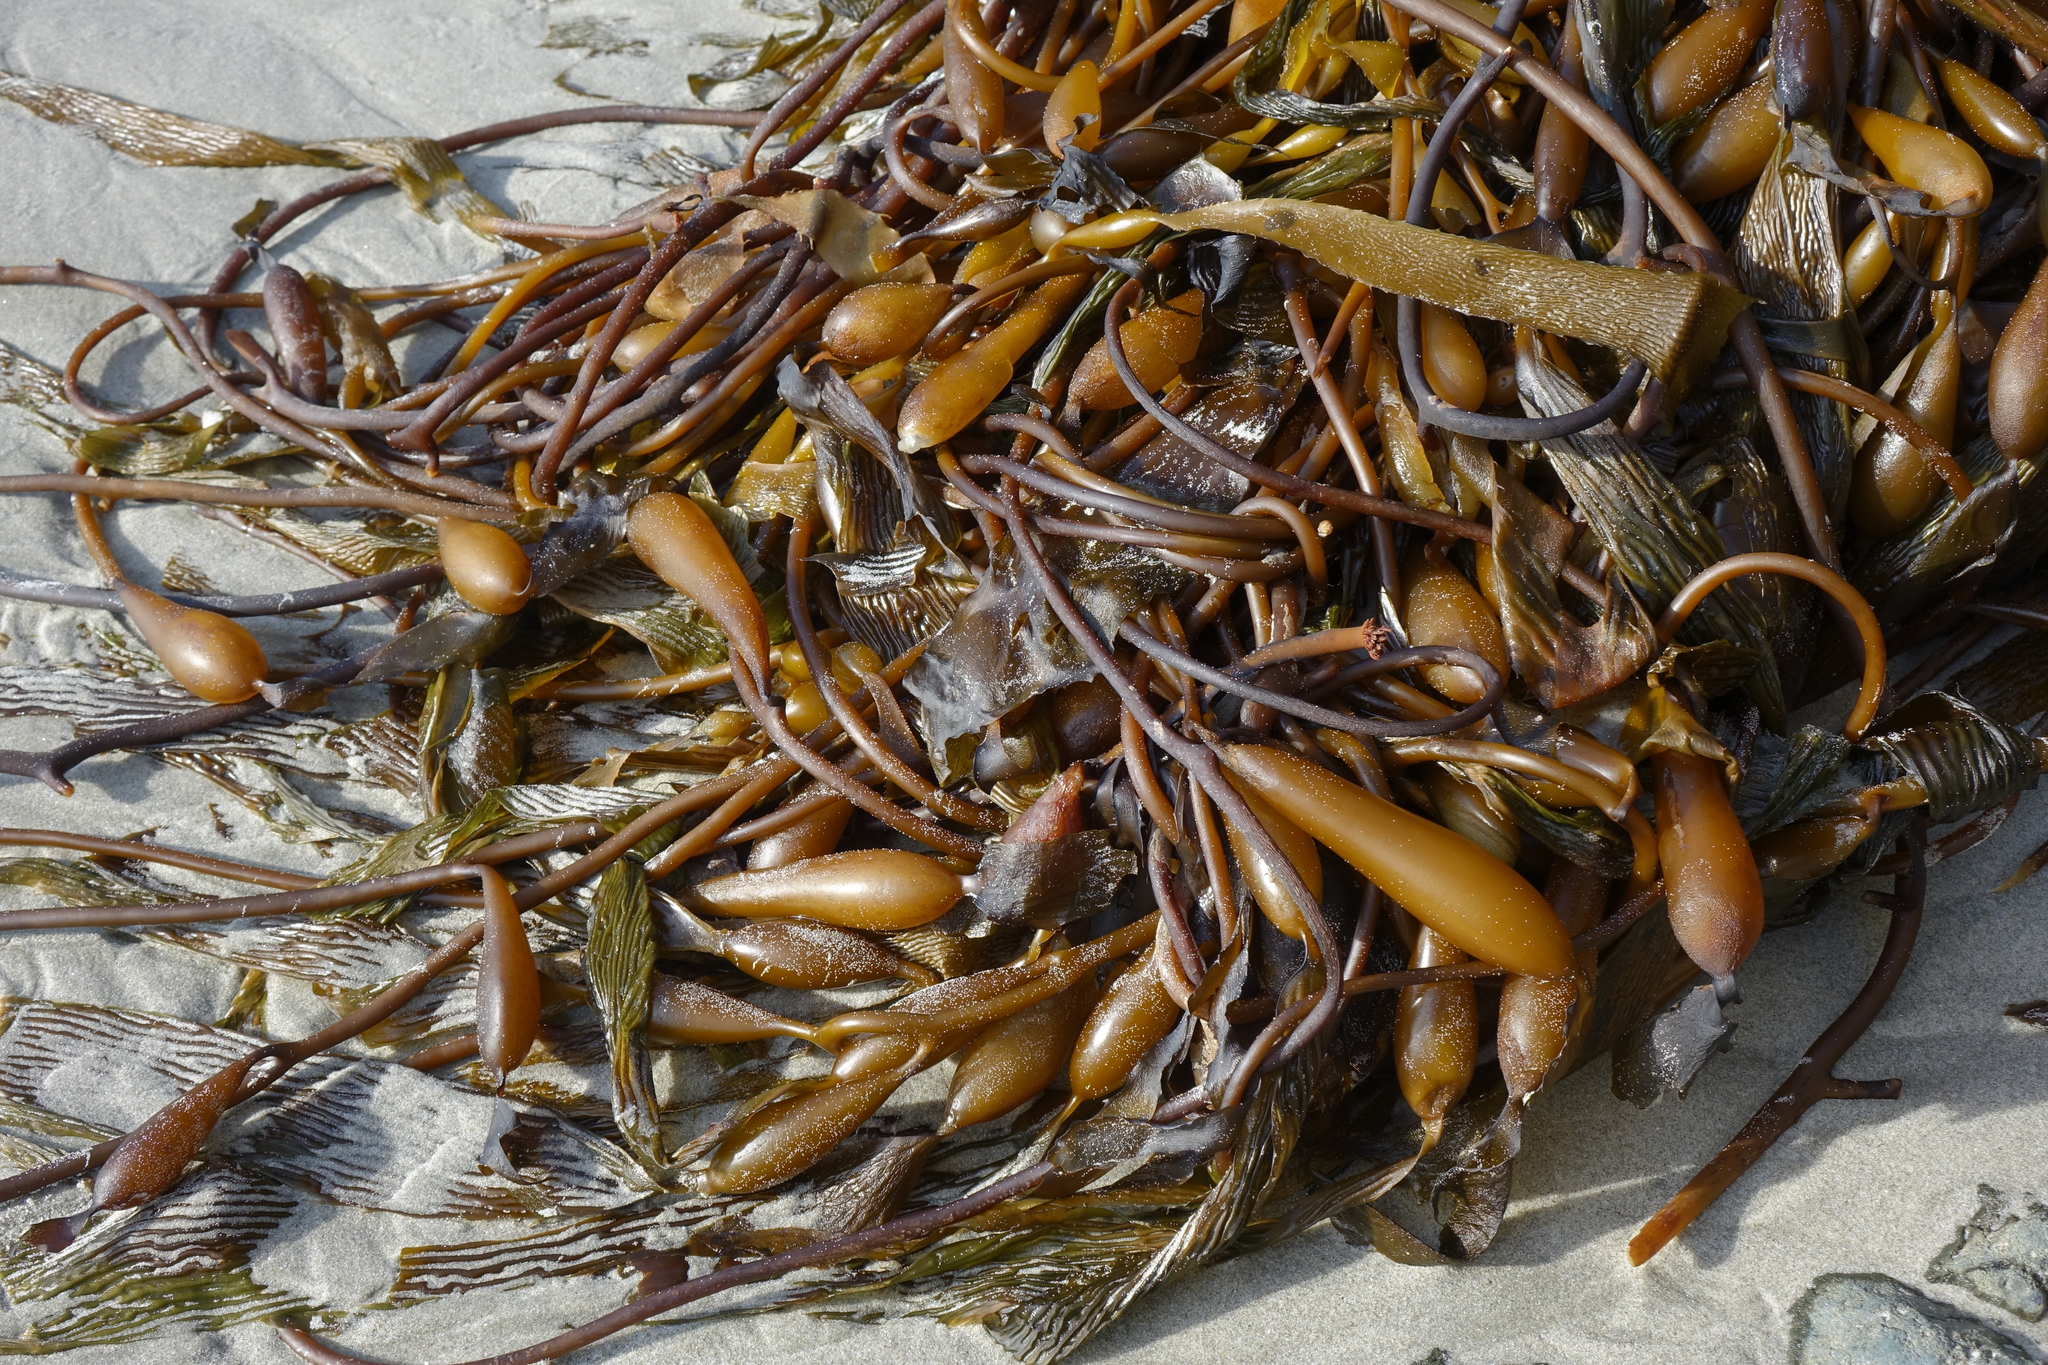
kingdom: Chromista
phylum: Ochrophyta
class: Phaeophyceae
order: Laminariales
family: Laminariaceae
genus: Macrocystis
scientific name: Macrocystis pyrifera
